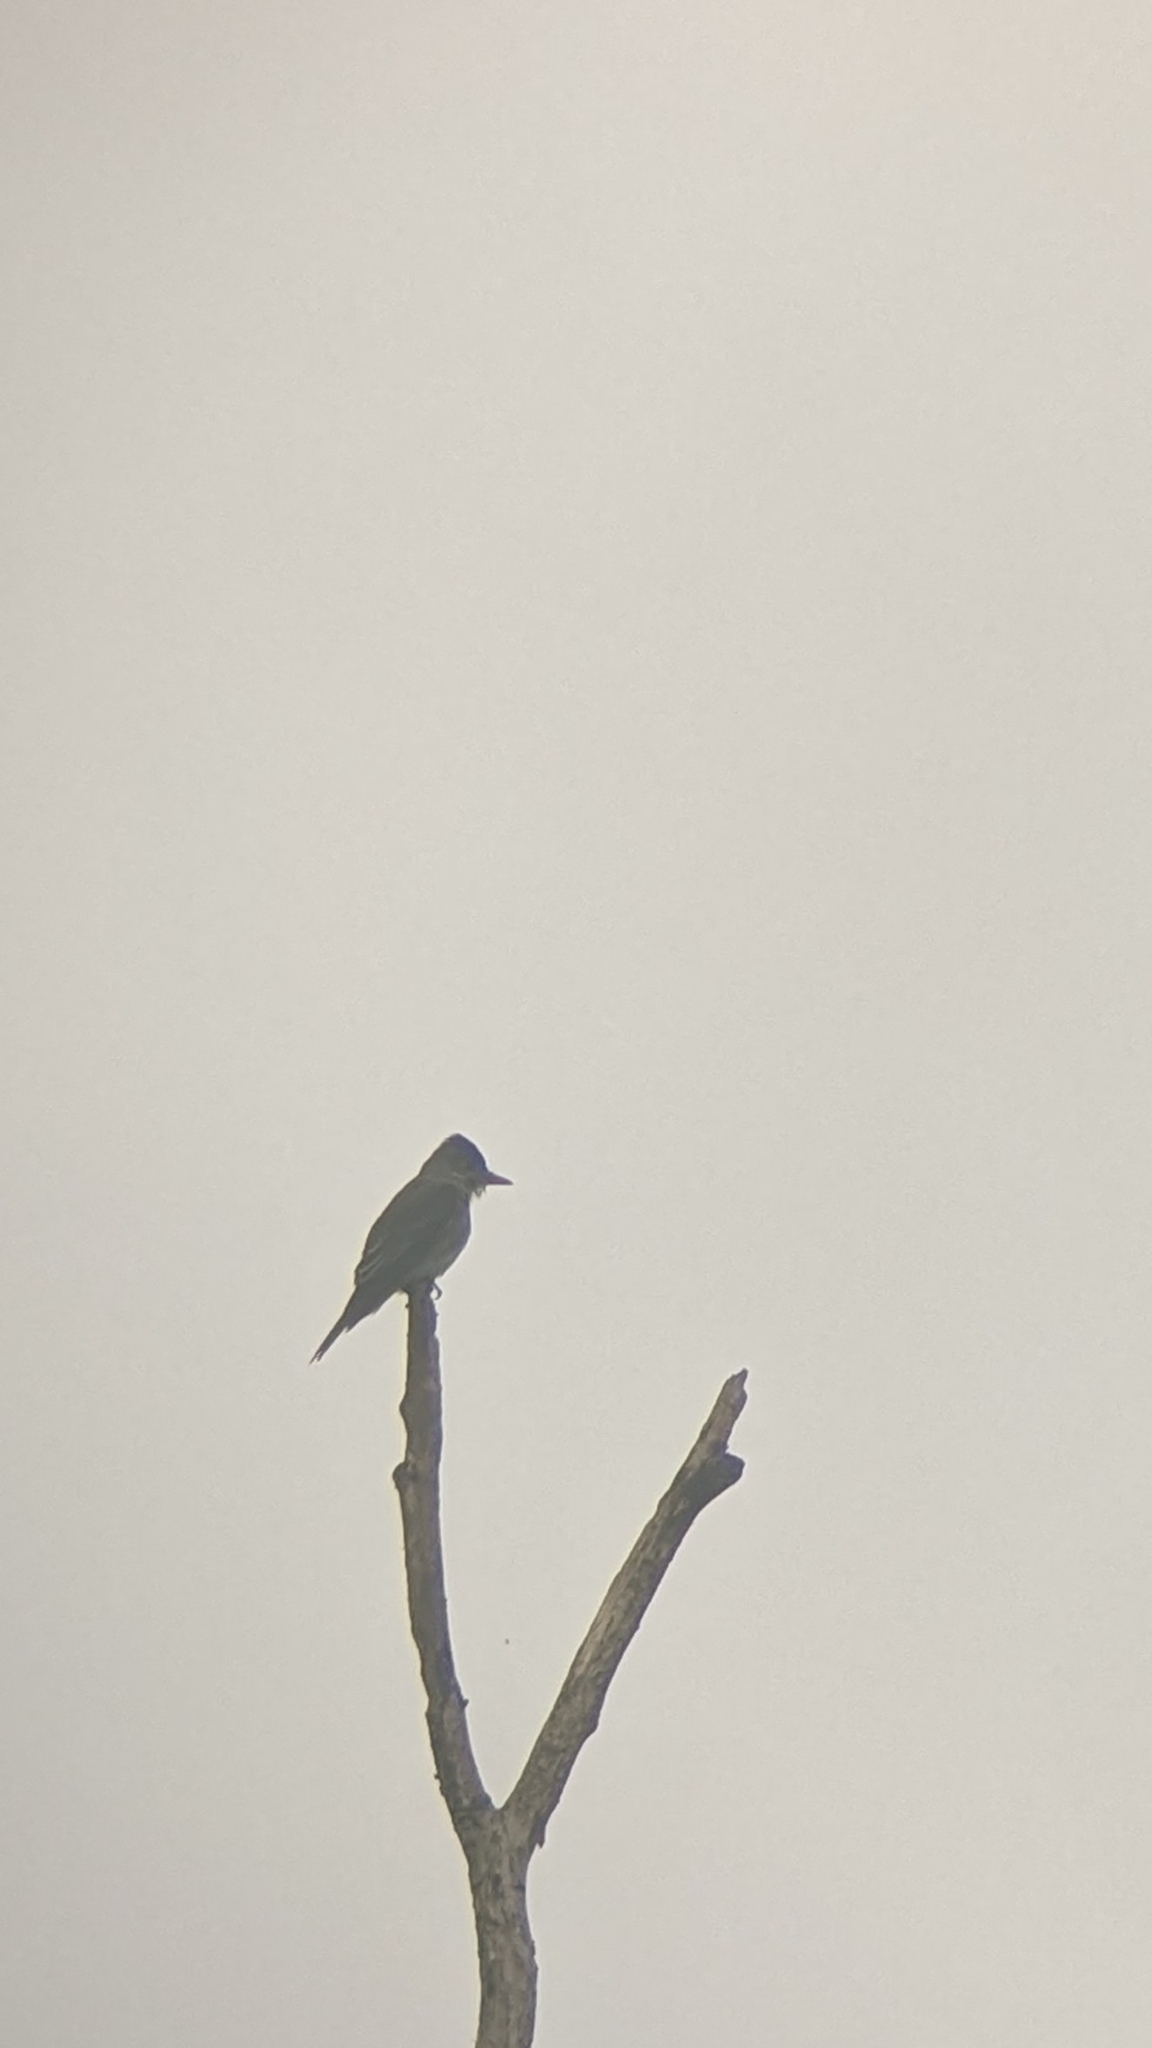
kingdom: Animalia
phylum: Chordata
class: Aves
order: Passeriformes
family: Tyrannidae
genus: Contopus
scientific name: Contopus cooperi
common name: Olive-sided flycatcher
